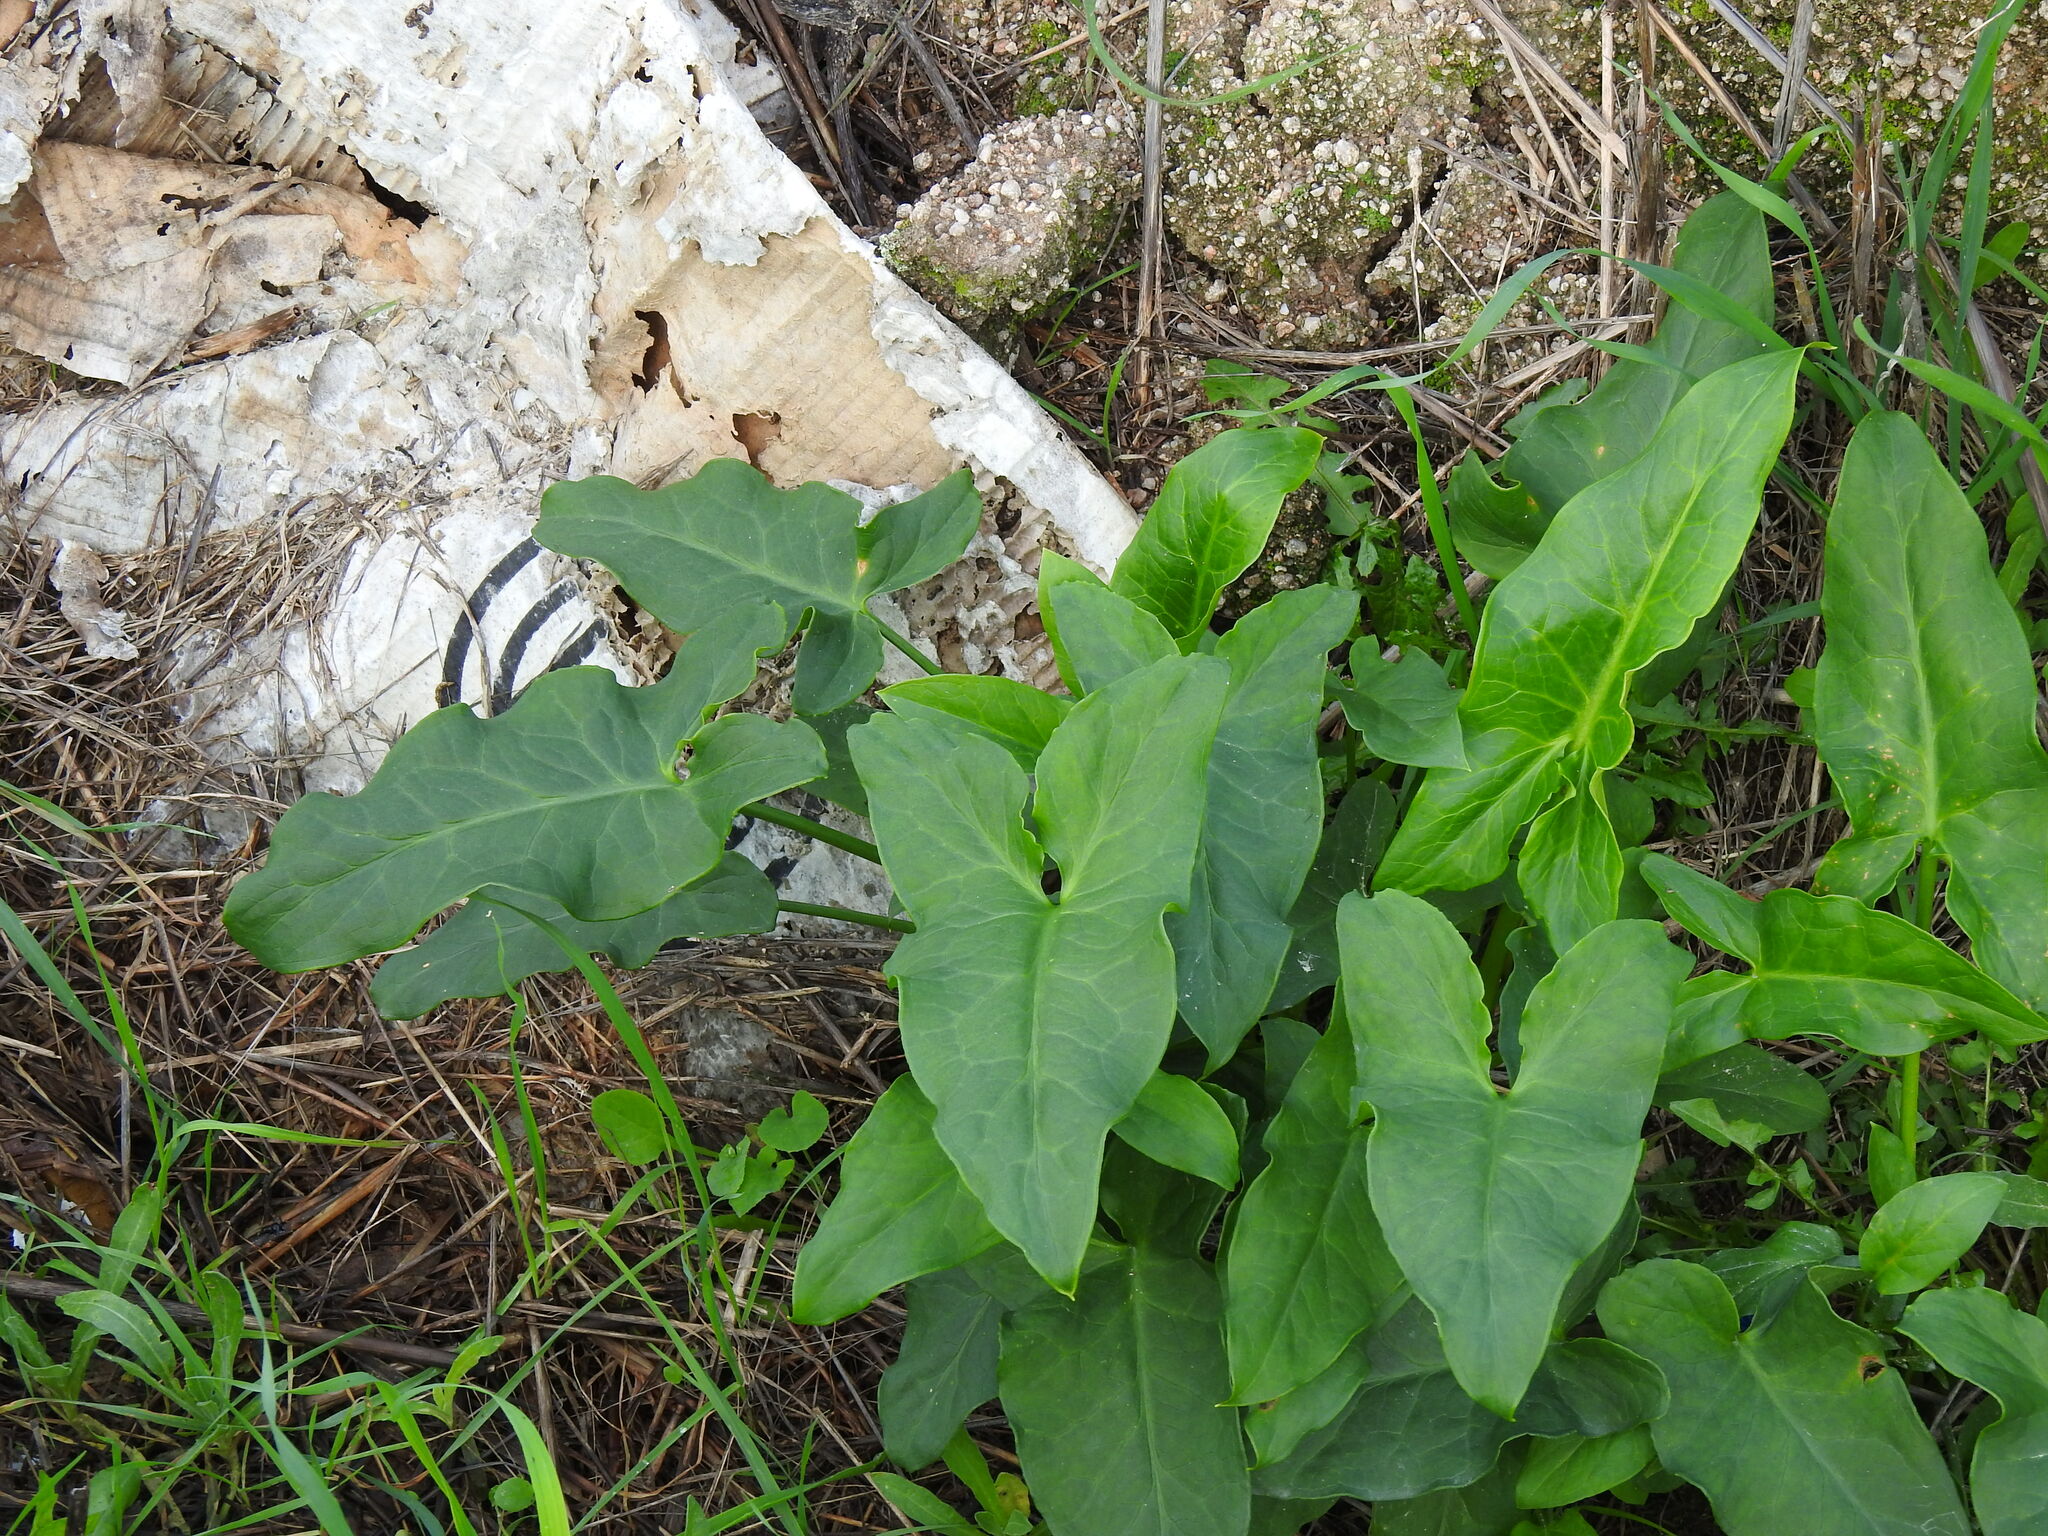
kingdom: Plantae
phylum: Tracheophyta
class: Liliopsida
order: Alismatales
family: Araceae
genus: Arum
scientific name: Arum italicum
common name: Italian lords-and-ladies
